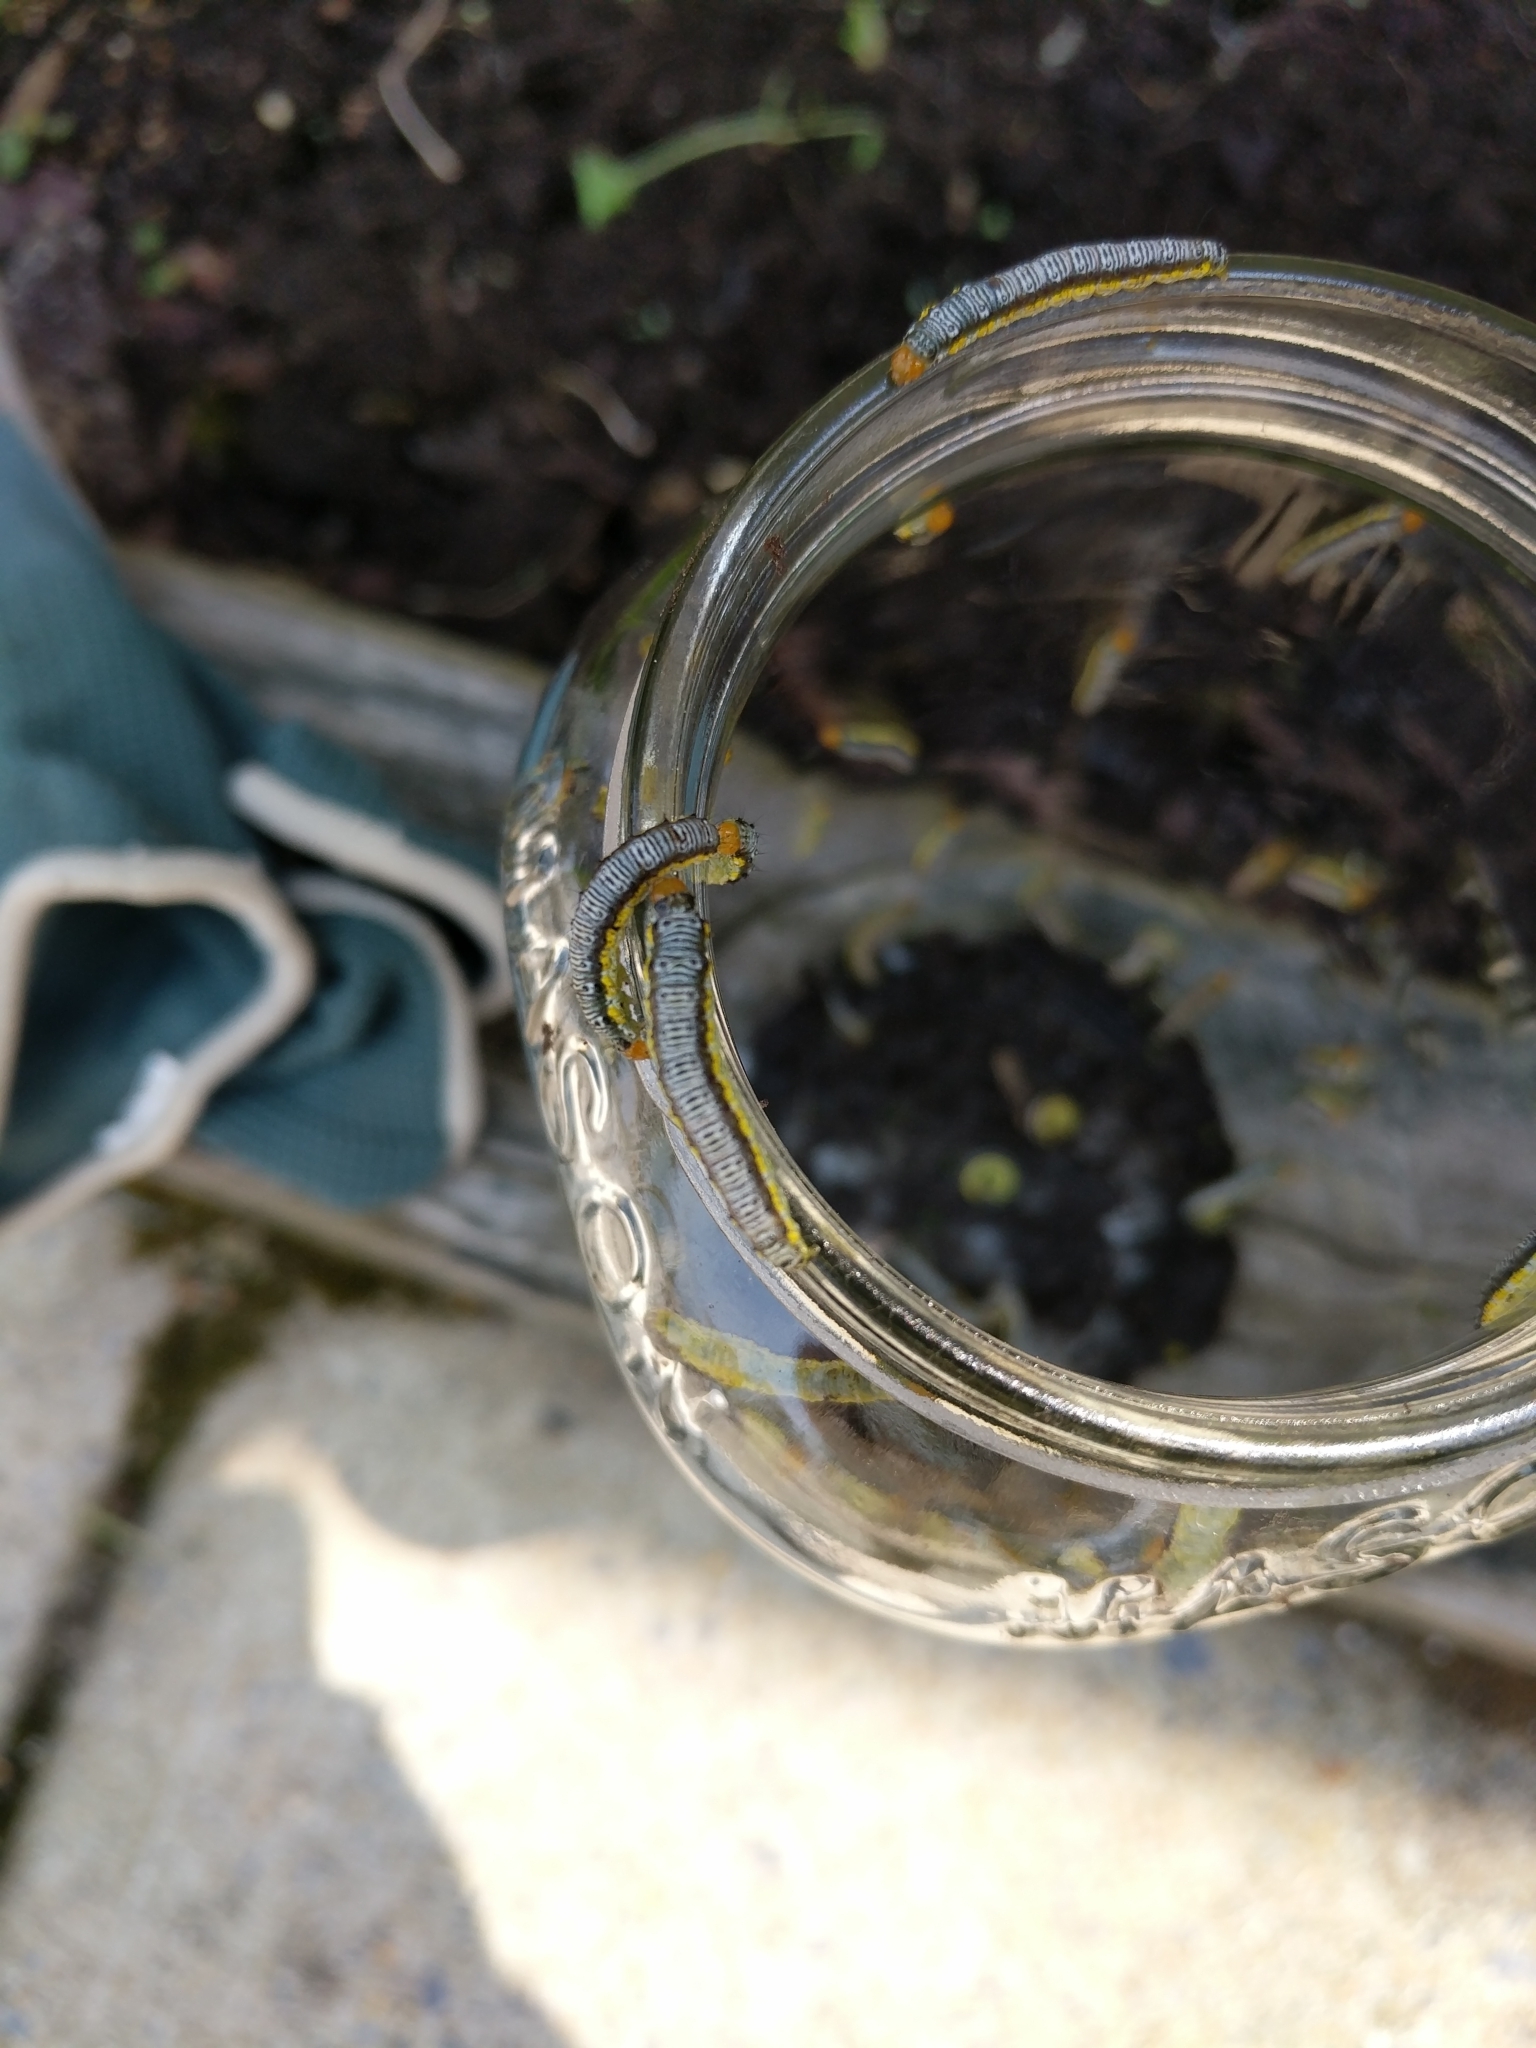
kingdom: Animalia
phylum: Arthropoda
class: Insecta
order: Lepidoptera
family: Crambidae
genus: Evergestis
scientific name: Evergestis rimosalis
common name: Cross-striped cabbageworm moth
